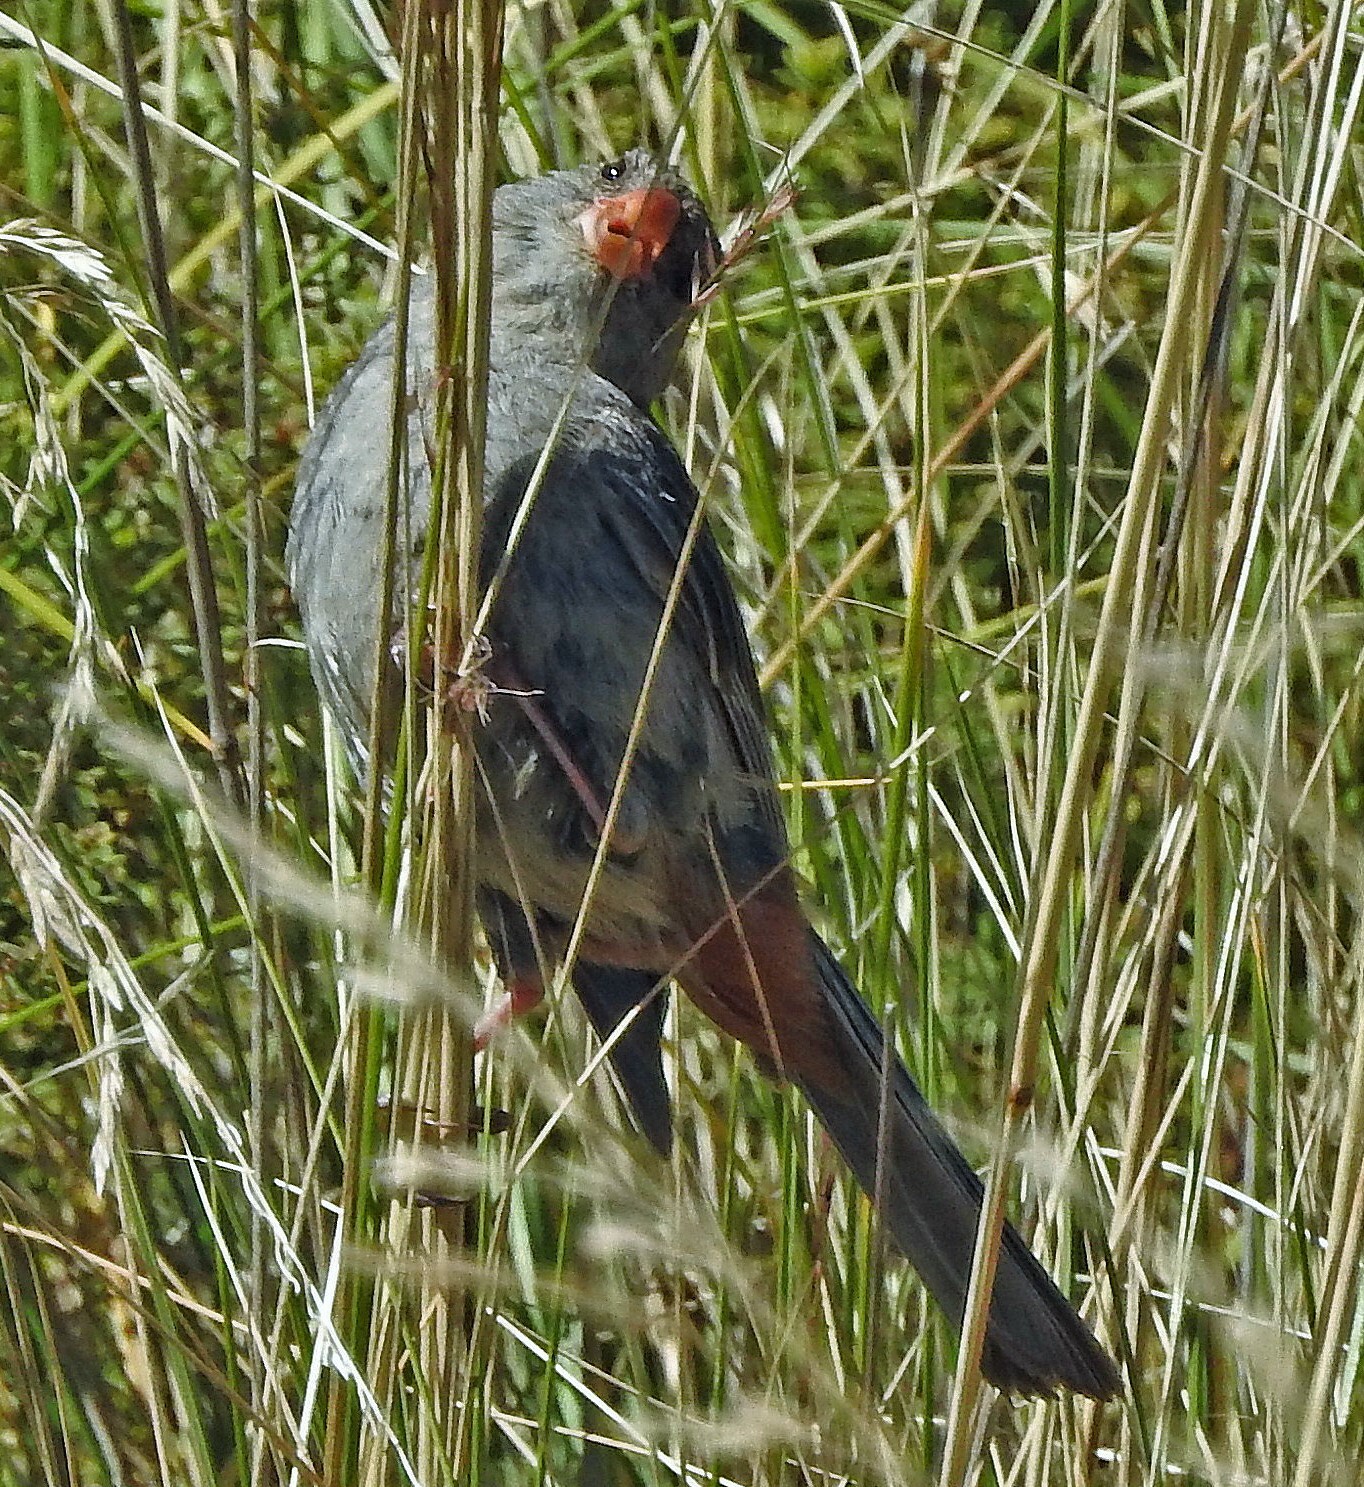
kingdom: Animalia
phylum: Chordata
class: Aves
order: Passeriformes
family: Thraupidae
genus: Catamenia
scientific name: Catamenia inornata
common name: Plain-colored seedeater
